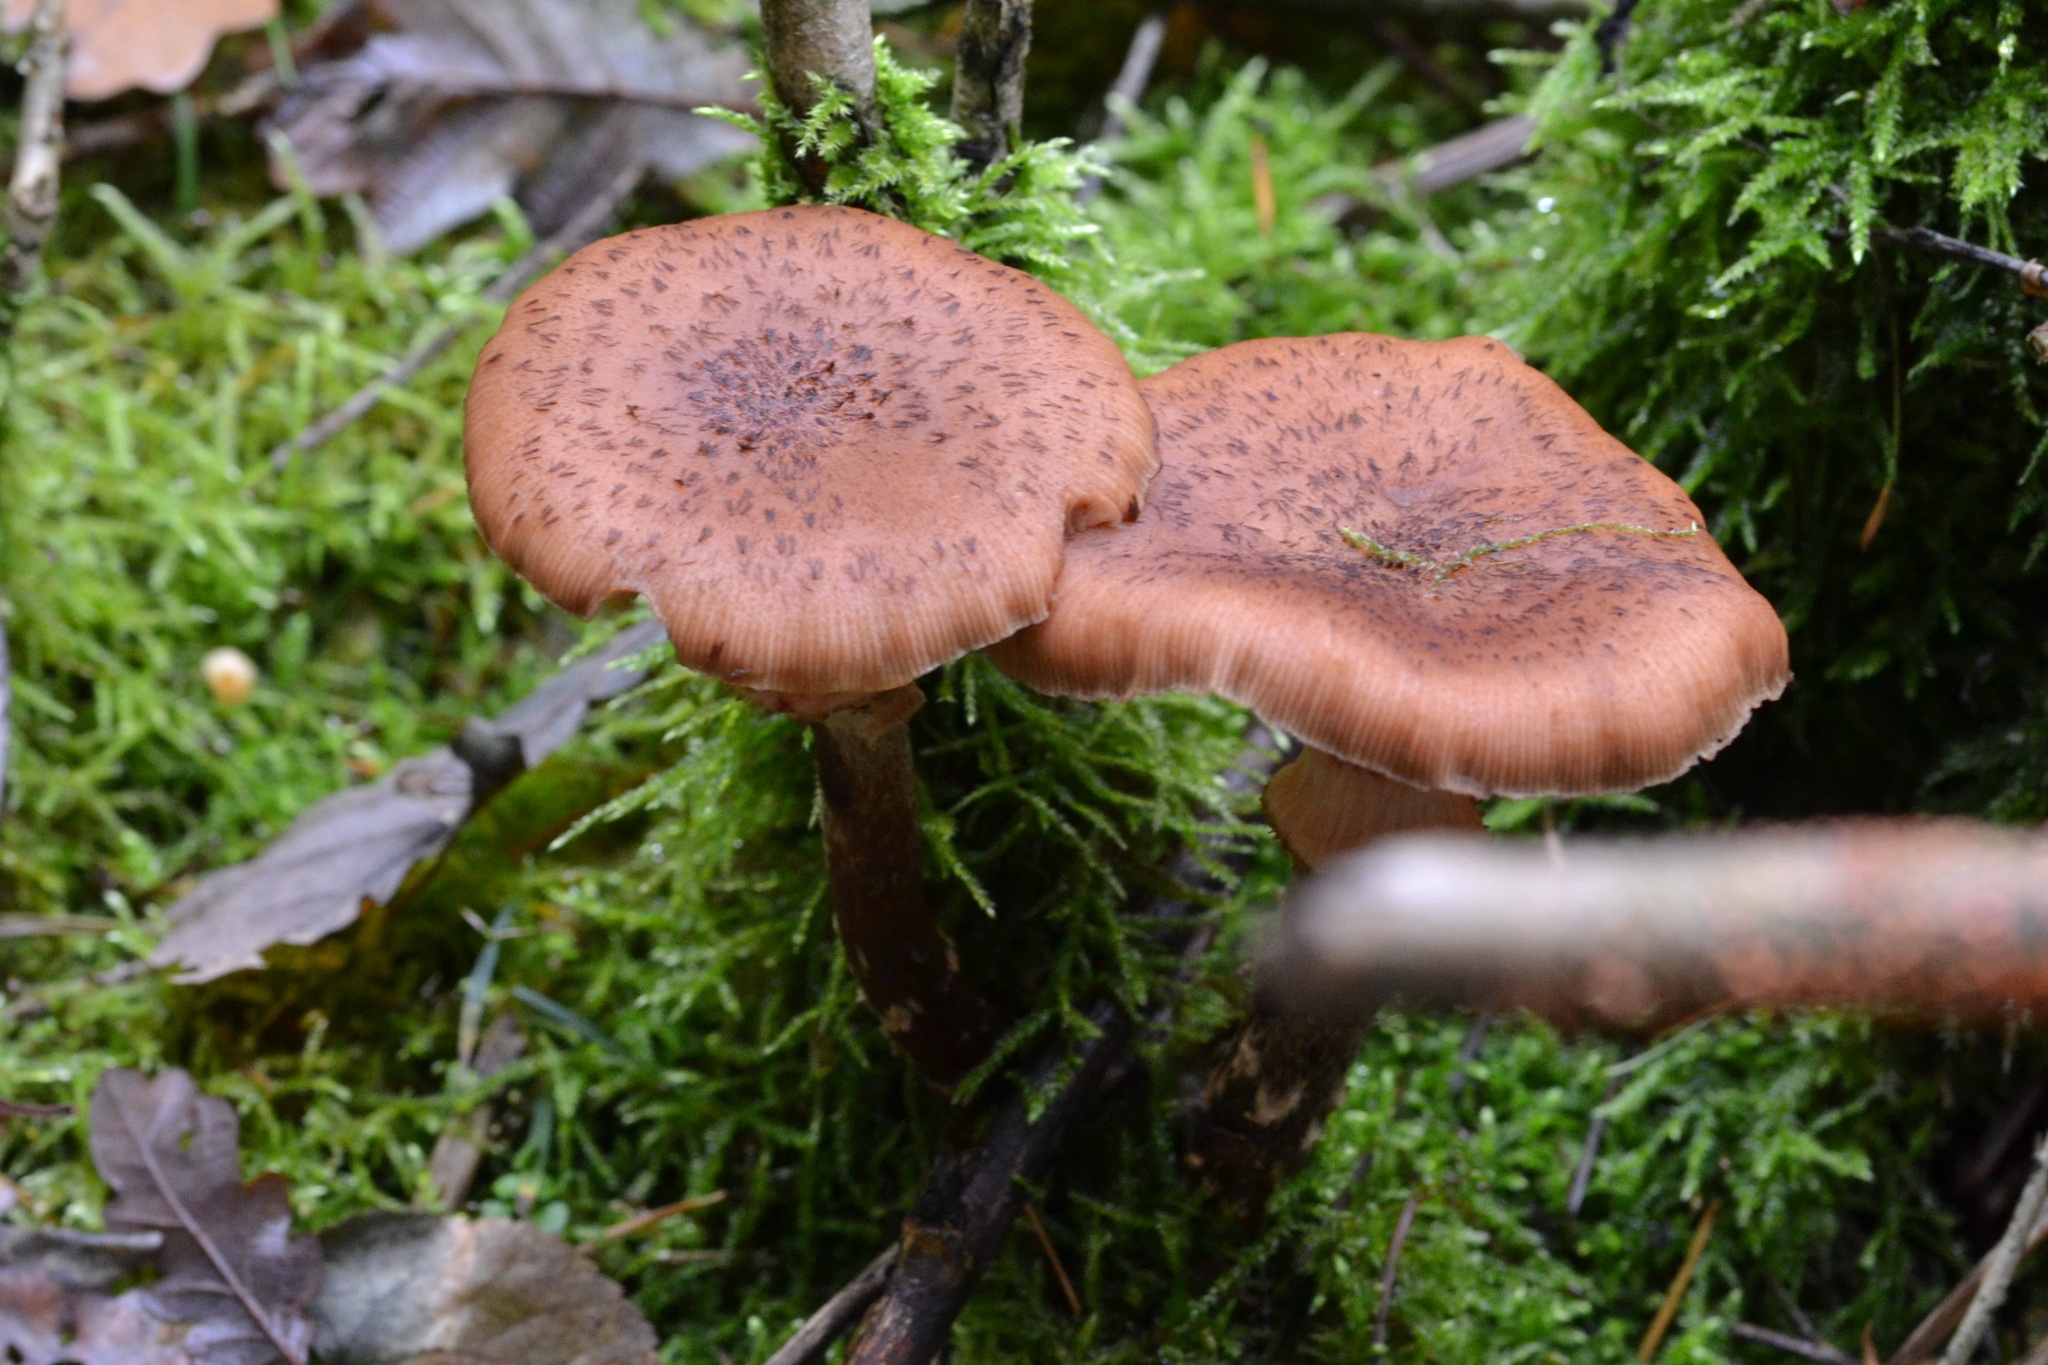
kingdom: Fungi
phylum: Basidiomycota
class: Agaricomycetes
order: Agaricales
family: Physalacriaceae
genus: Armillaria
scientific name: Armillaria ostoyae
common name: Dark honey fungus
